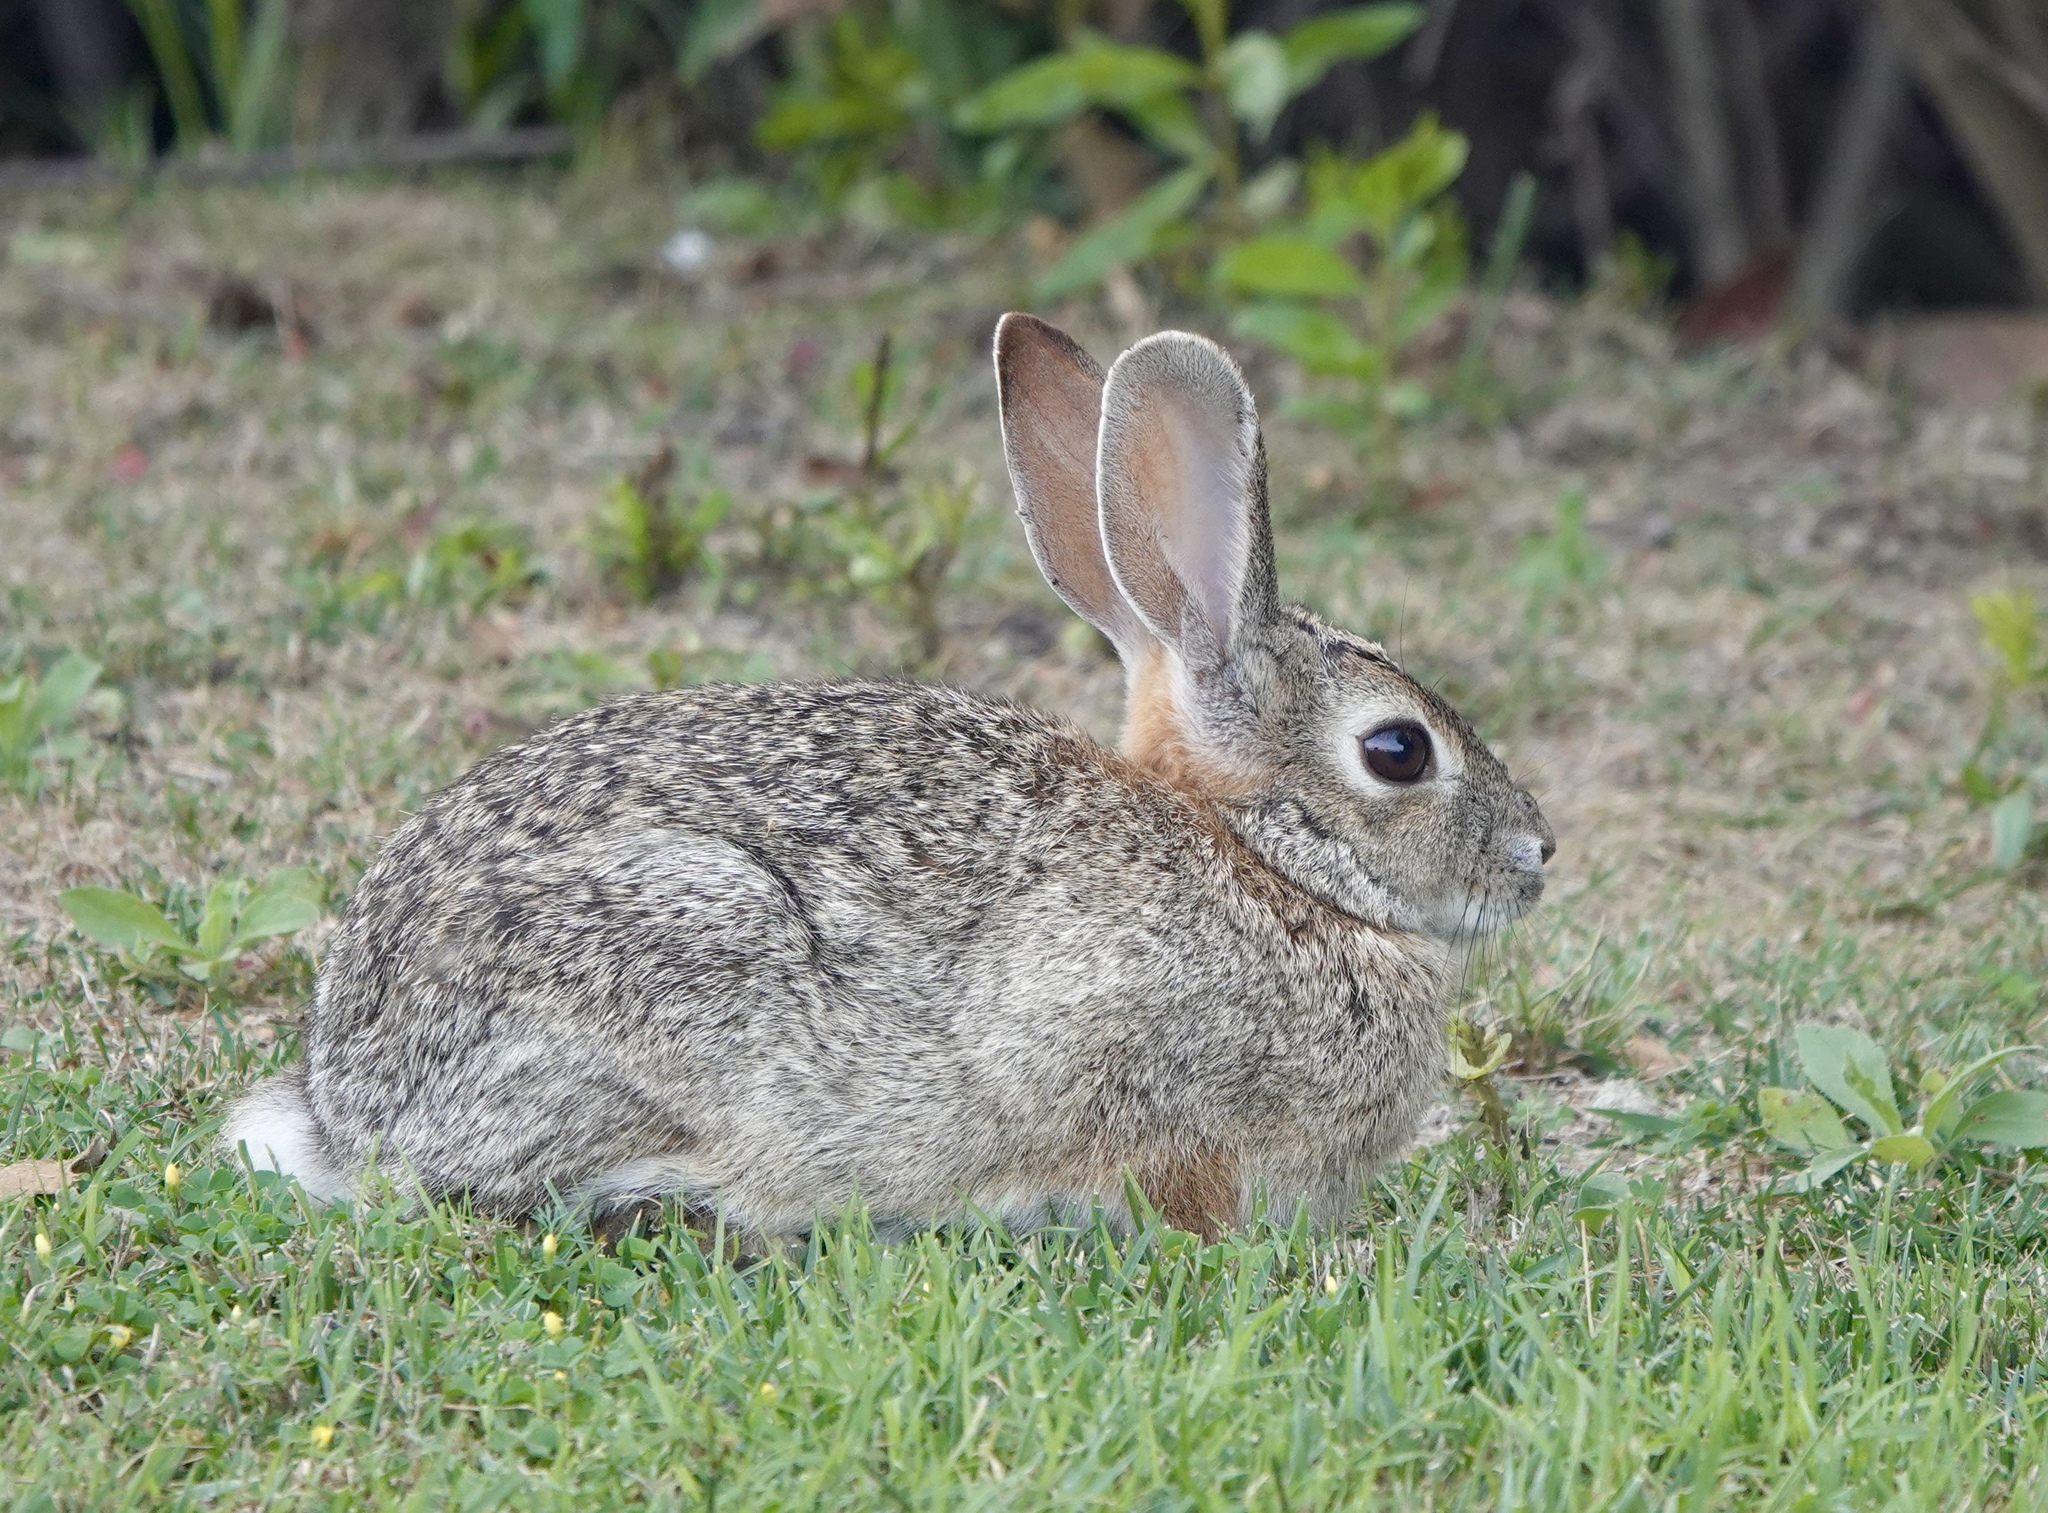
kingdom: Animalia
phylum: Chordata
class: Mammalia
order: Lagomorpha
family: Leporidae
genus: Sylvilagus
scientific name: Sylvilagus audubonii
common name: Desert cottontail
